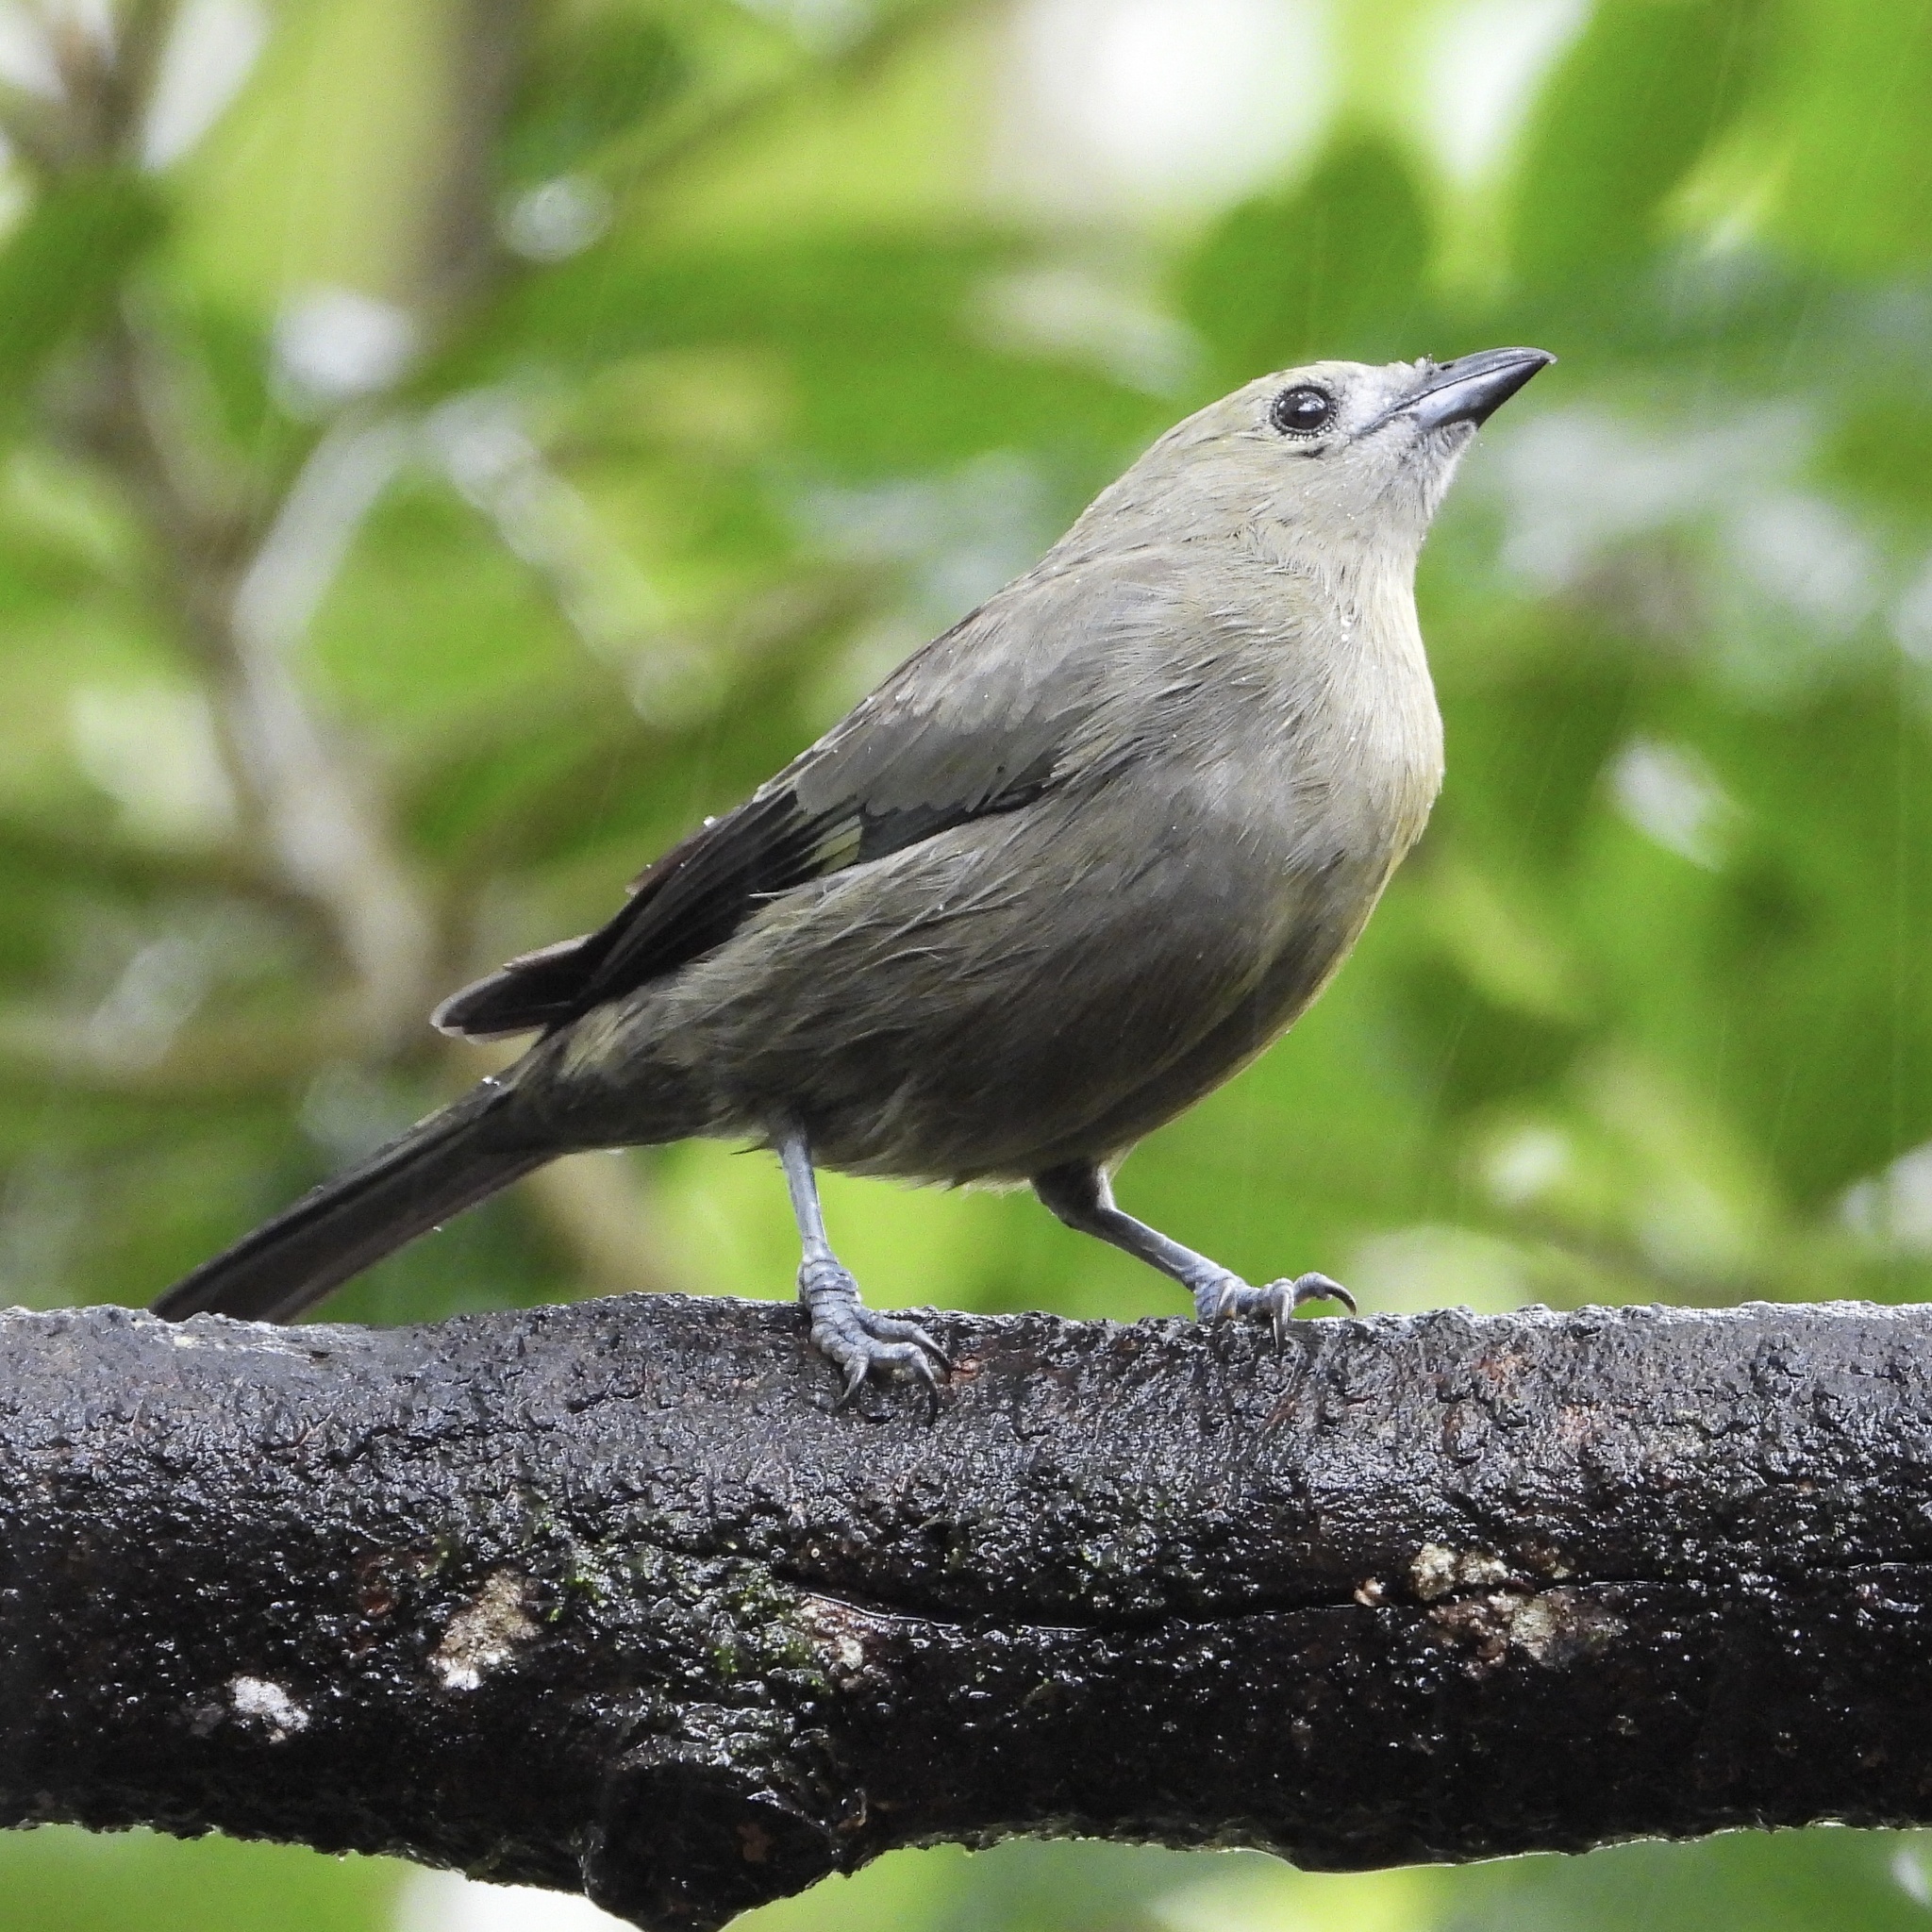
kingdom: Animalia
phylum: Chordata
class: Aves
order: Passeriformes
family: Thraupidae
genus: Thraupis
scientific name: Thraupis palmarum
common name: Palm tanager
